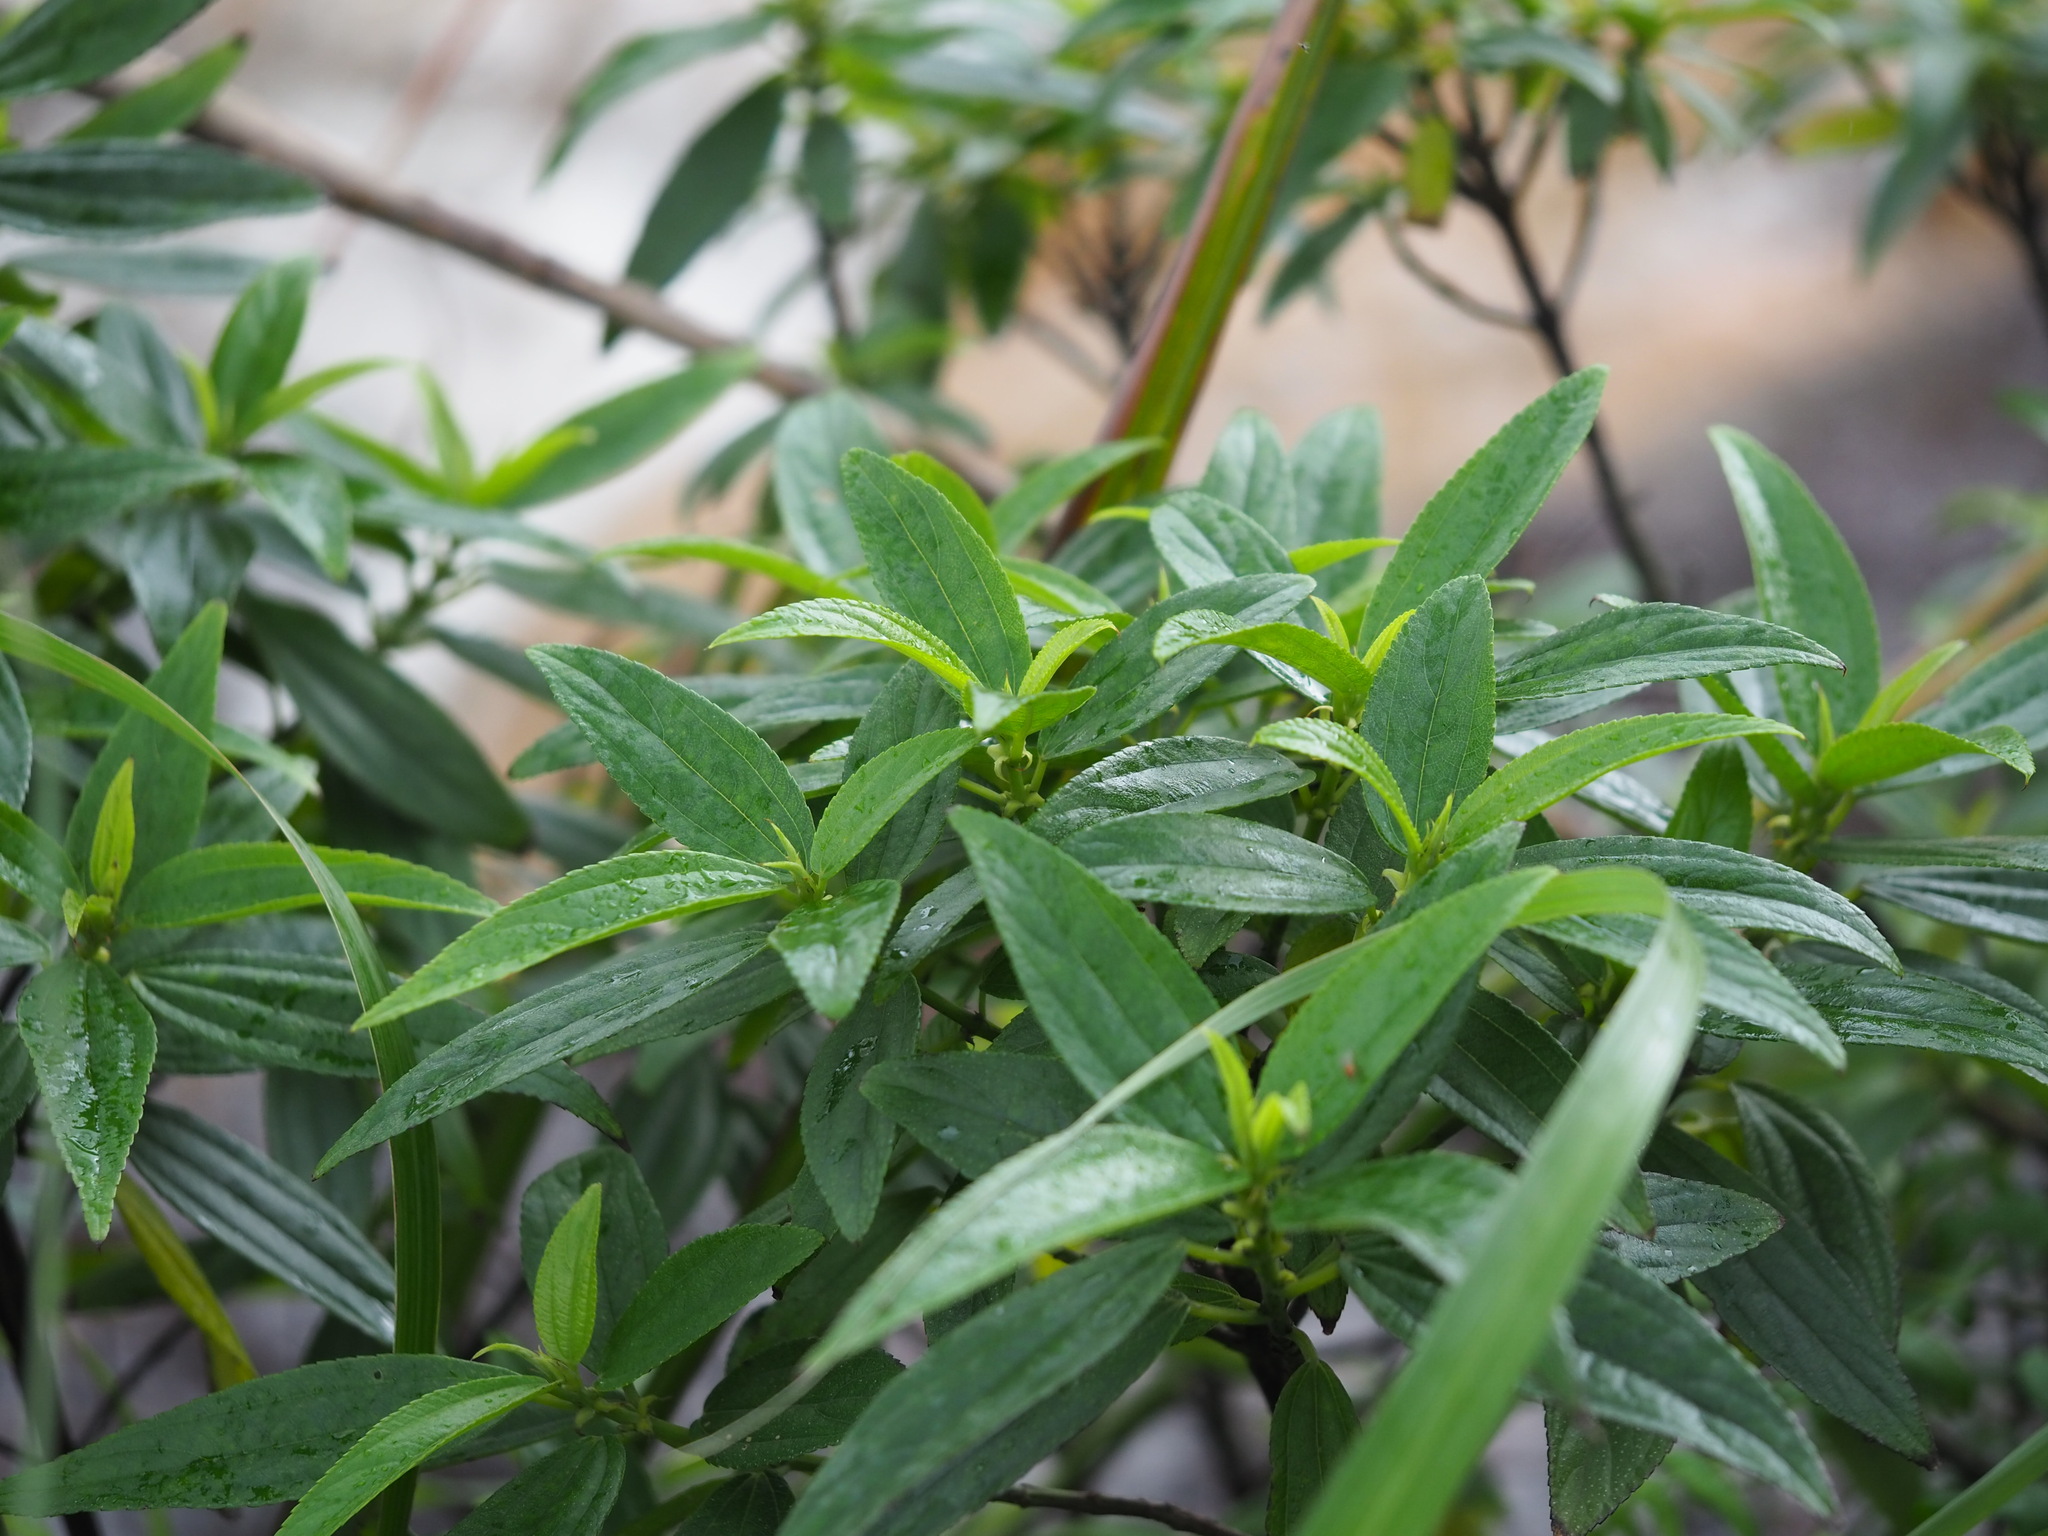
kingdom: Plantae
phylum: Tracheophyta
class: Magnoliopsida
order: Rosales
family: Urticaceae
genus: Boehmeria
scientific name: Boehmeria densiflora
